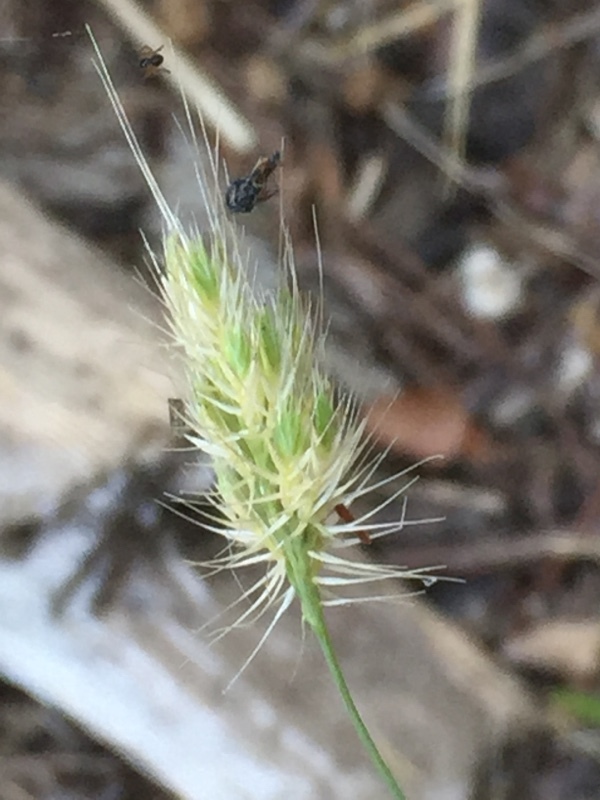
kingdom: Plantae
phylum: Tracheophyta
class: Liliopsida
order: Poales
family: Poaceae
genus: Cynosurus
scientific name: Cynosurus echinatus
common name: Rough dog's-tail
